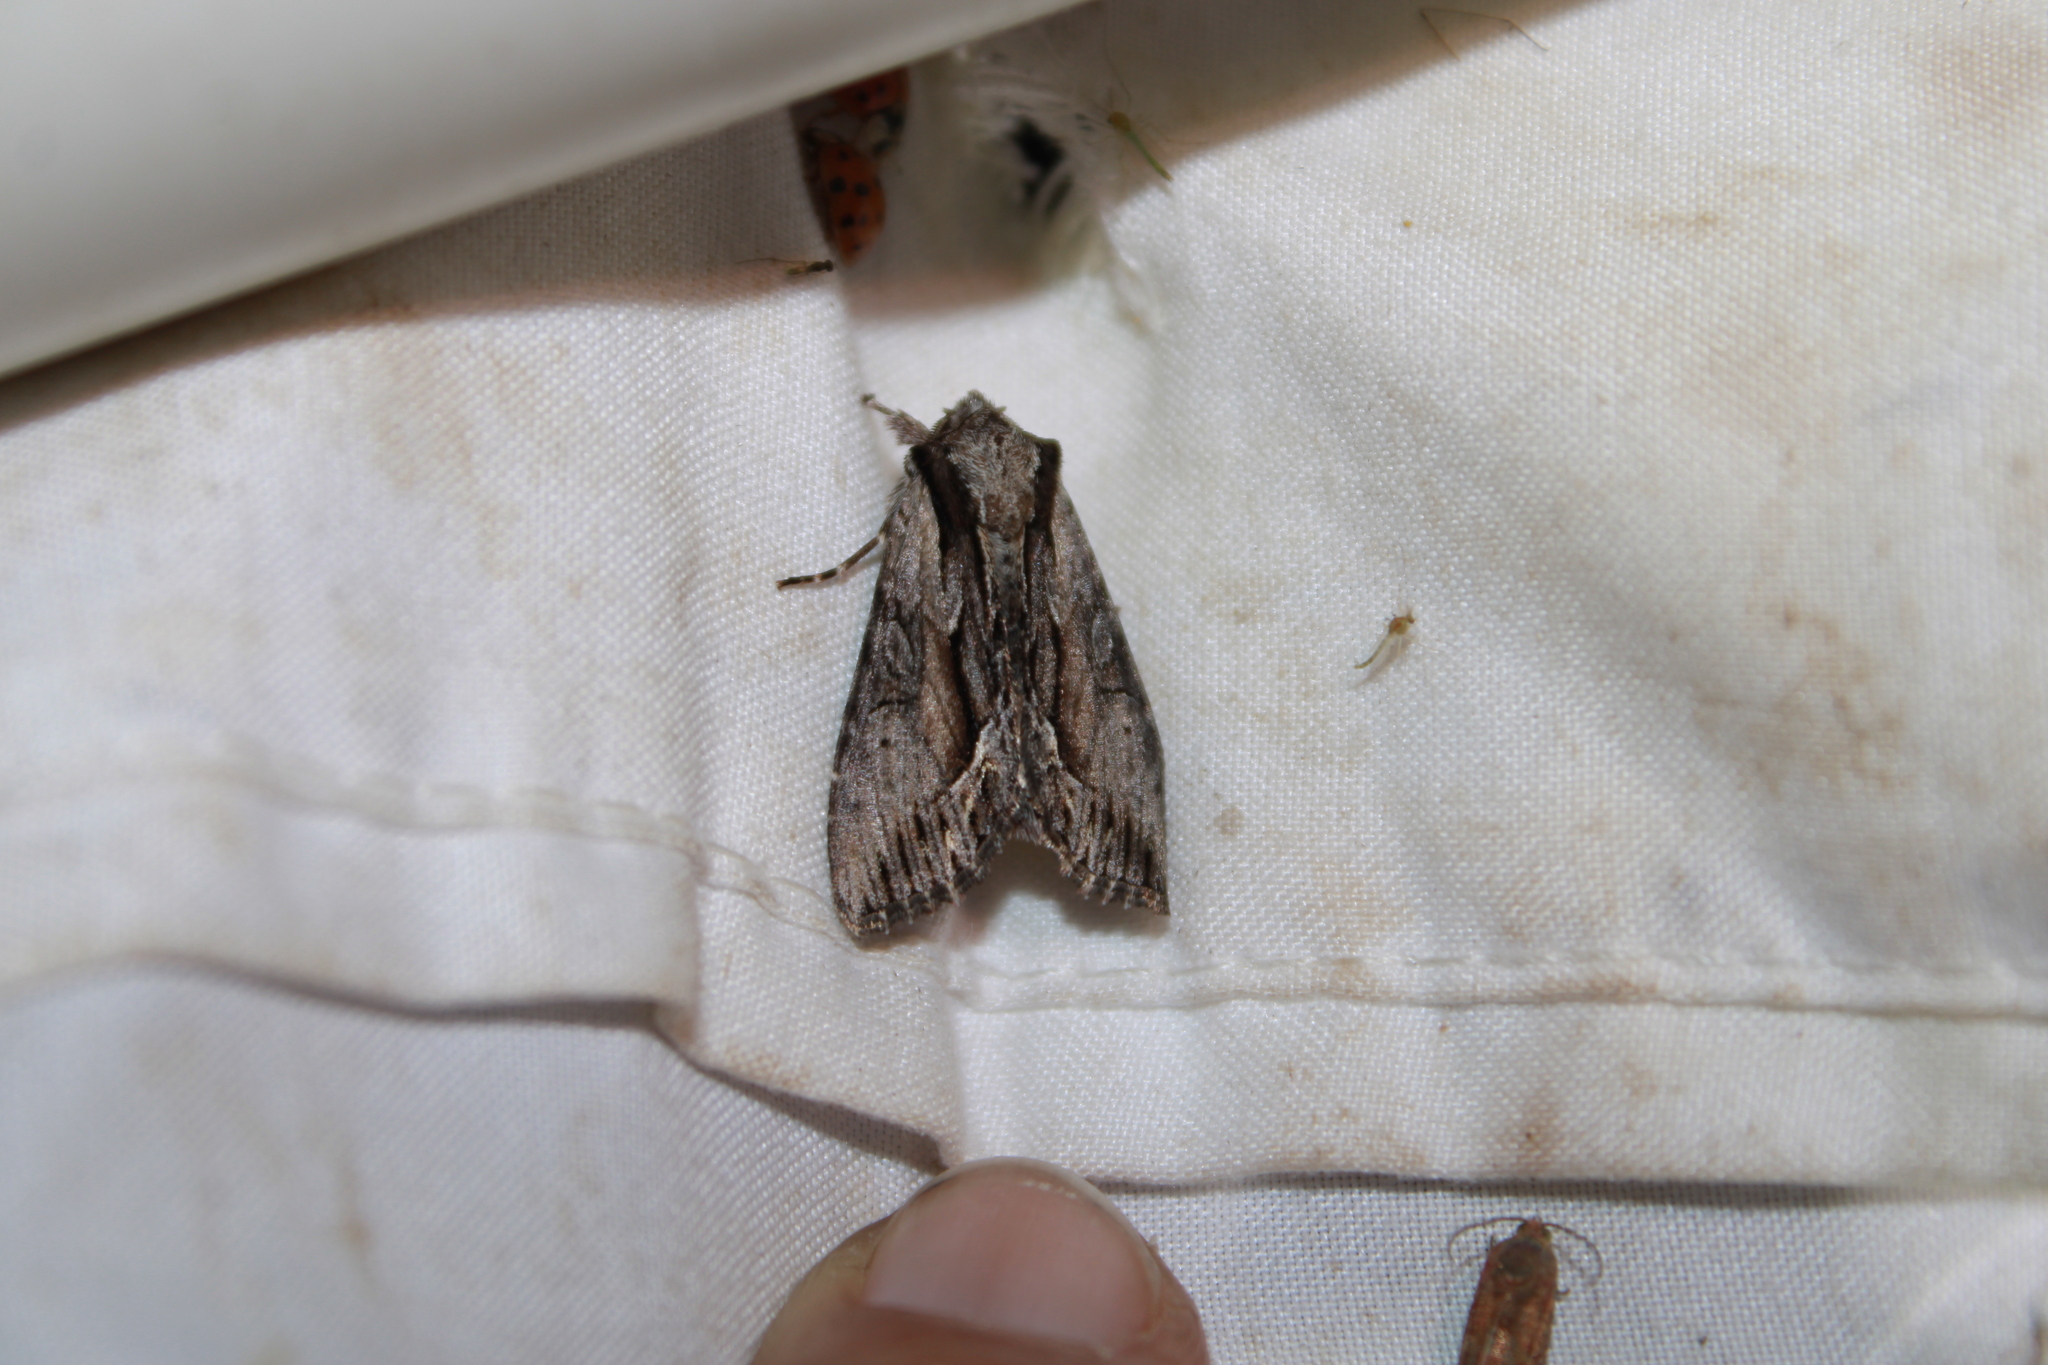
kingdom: Animalia
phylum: Arthropoda
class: Insecta
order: Lepidoptera
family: Noctuidae
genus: Hyppa
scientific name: Hyppa xylinoides
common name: Common hyppa moth
